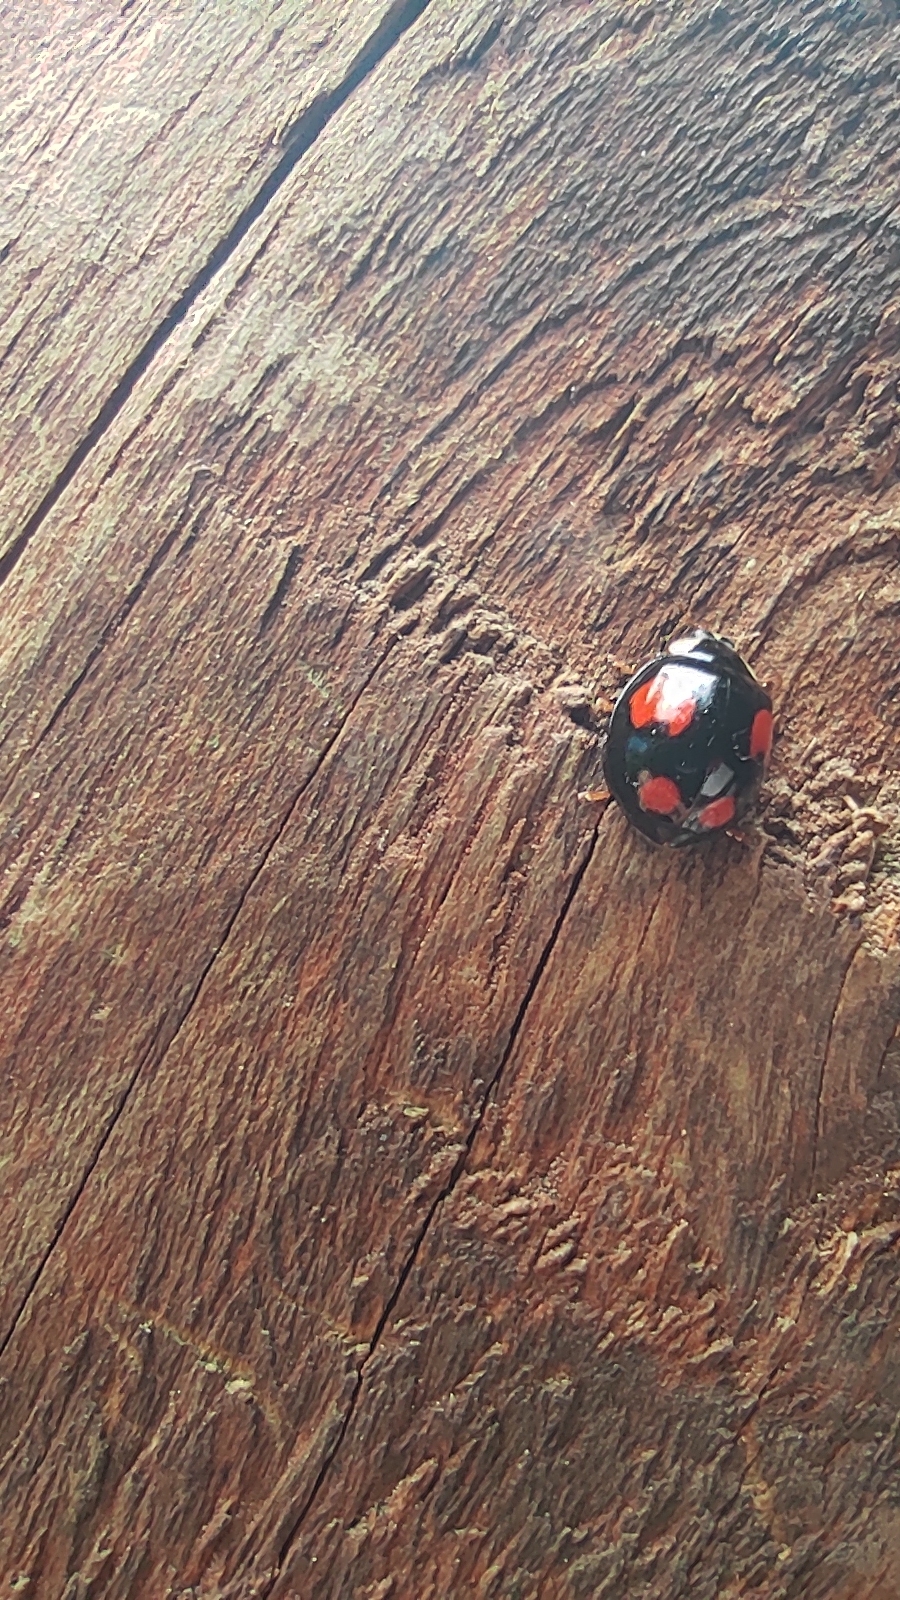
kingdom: Animalia
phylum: Arthropoda
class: Insecta
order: Coleoptera
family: Coccinellidae
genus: Harmonia
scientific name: Harmonia axyridis
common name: Harlequin ladybird
